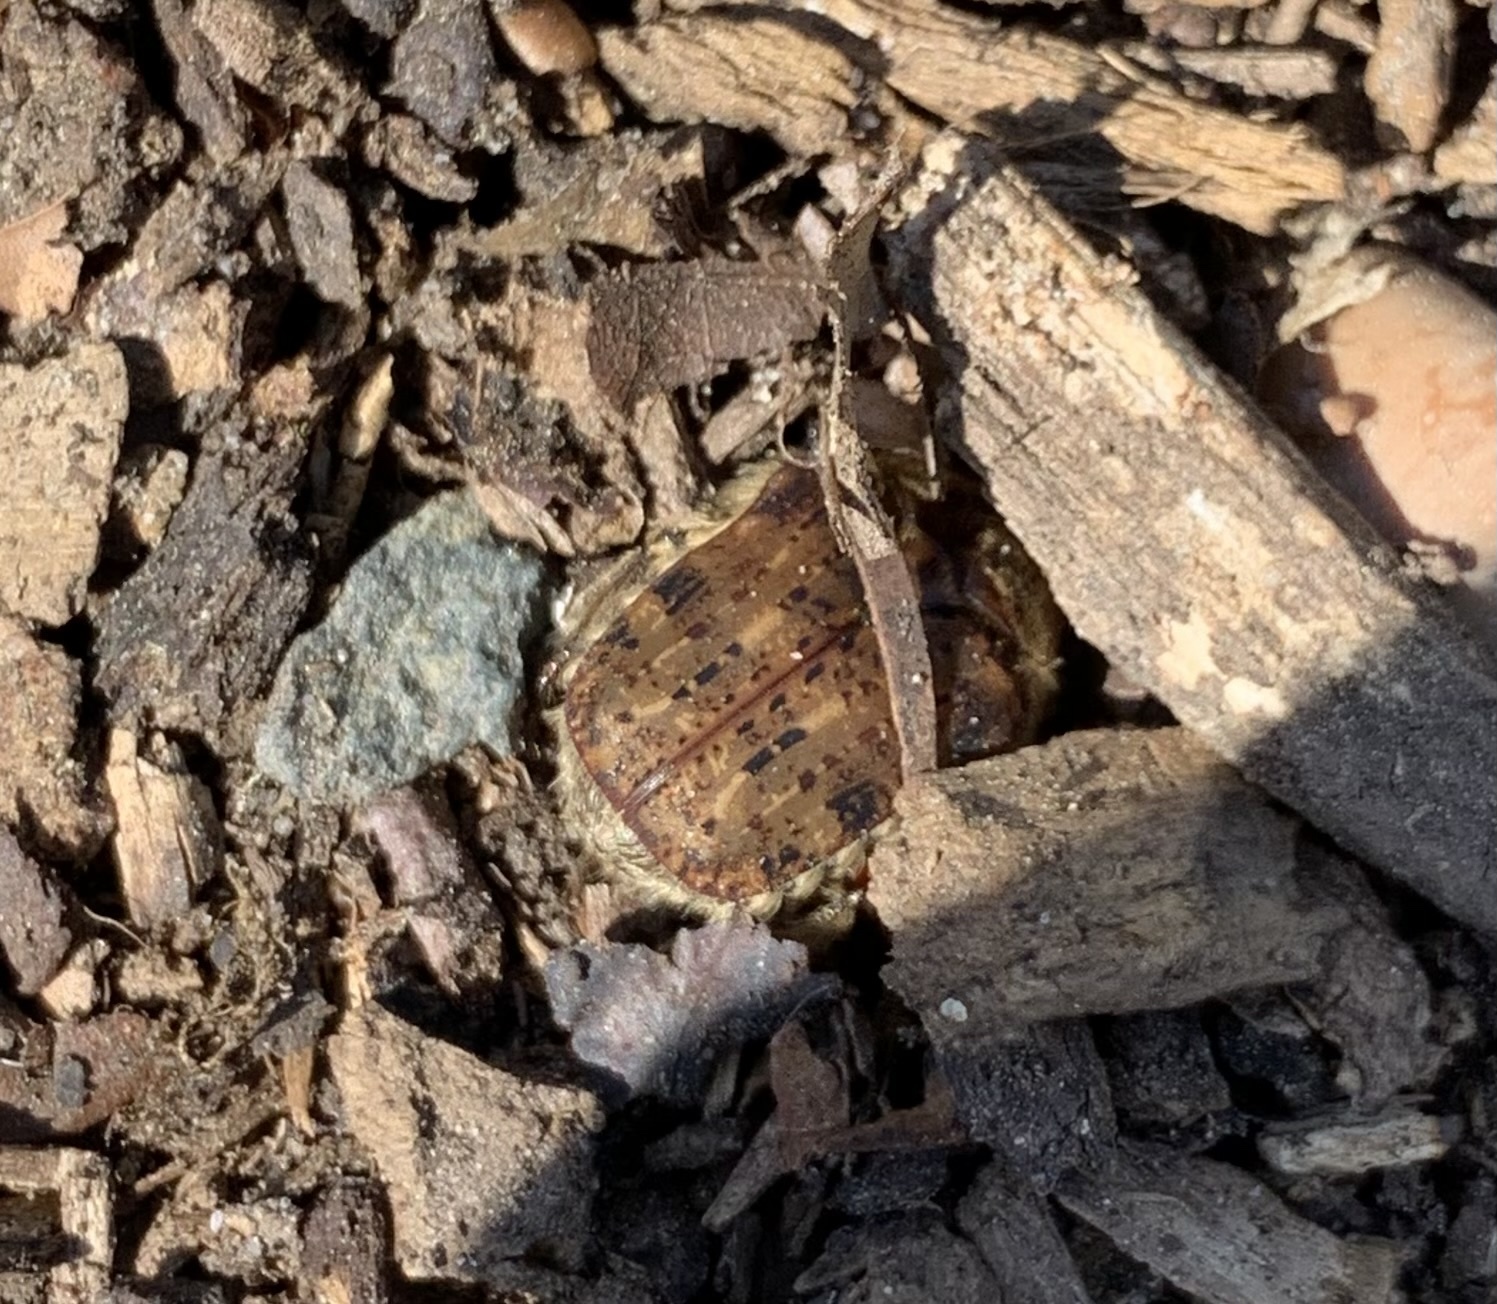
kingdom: Animalia
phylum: Arthropoda
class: Insecta
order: Coleoptera
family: Scarabaeidae
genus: Euphoria
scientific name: Euphoria inda
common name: Bumble flower beetle
